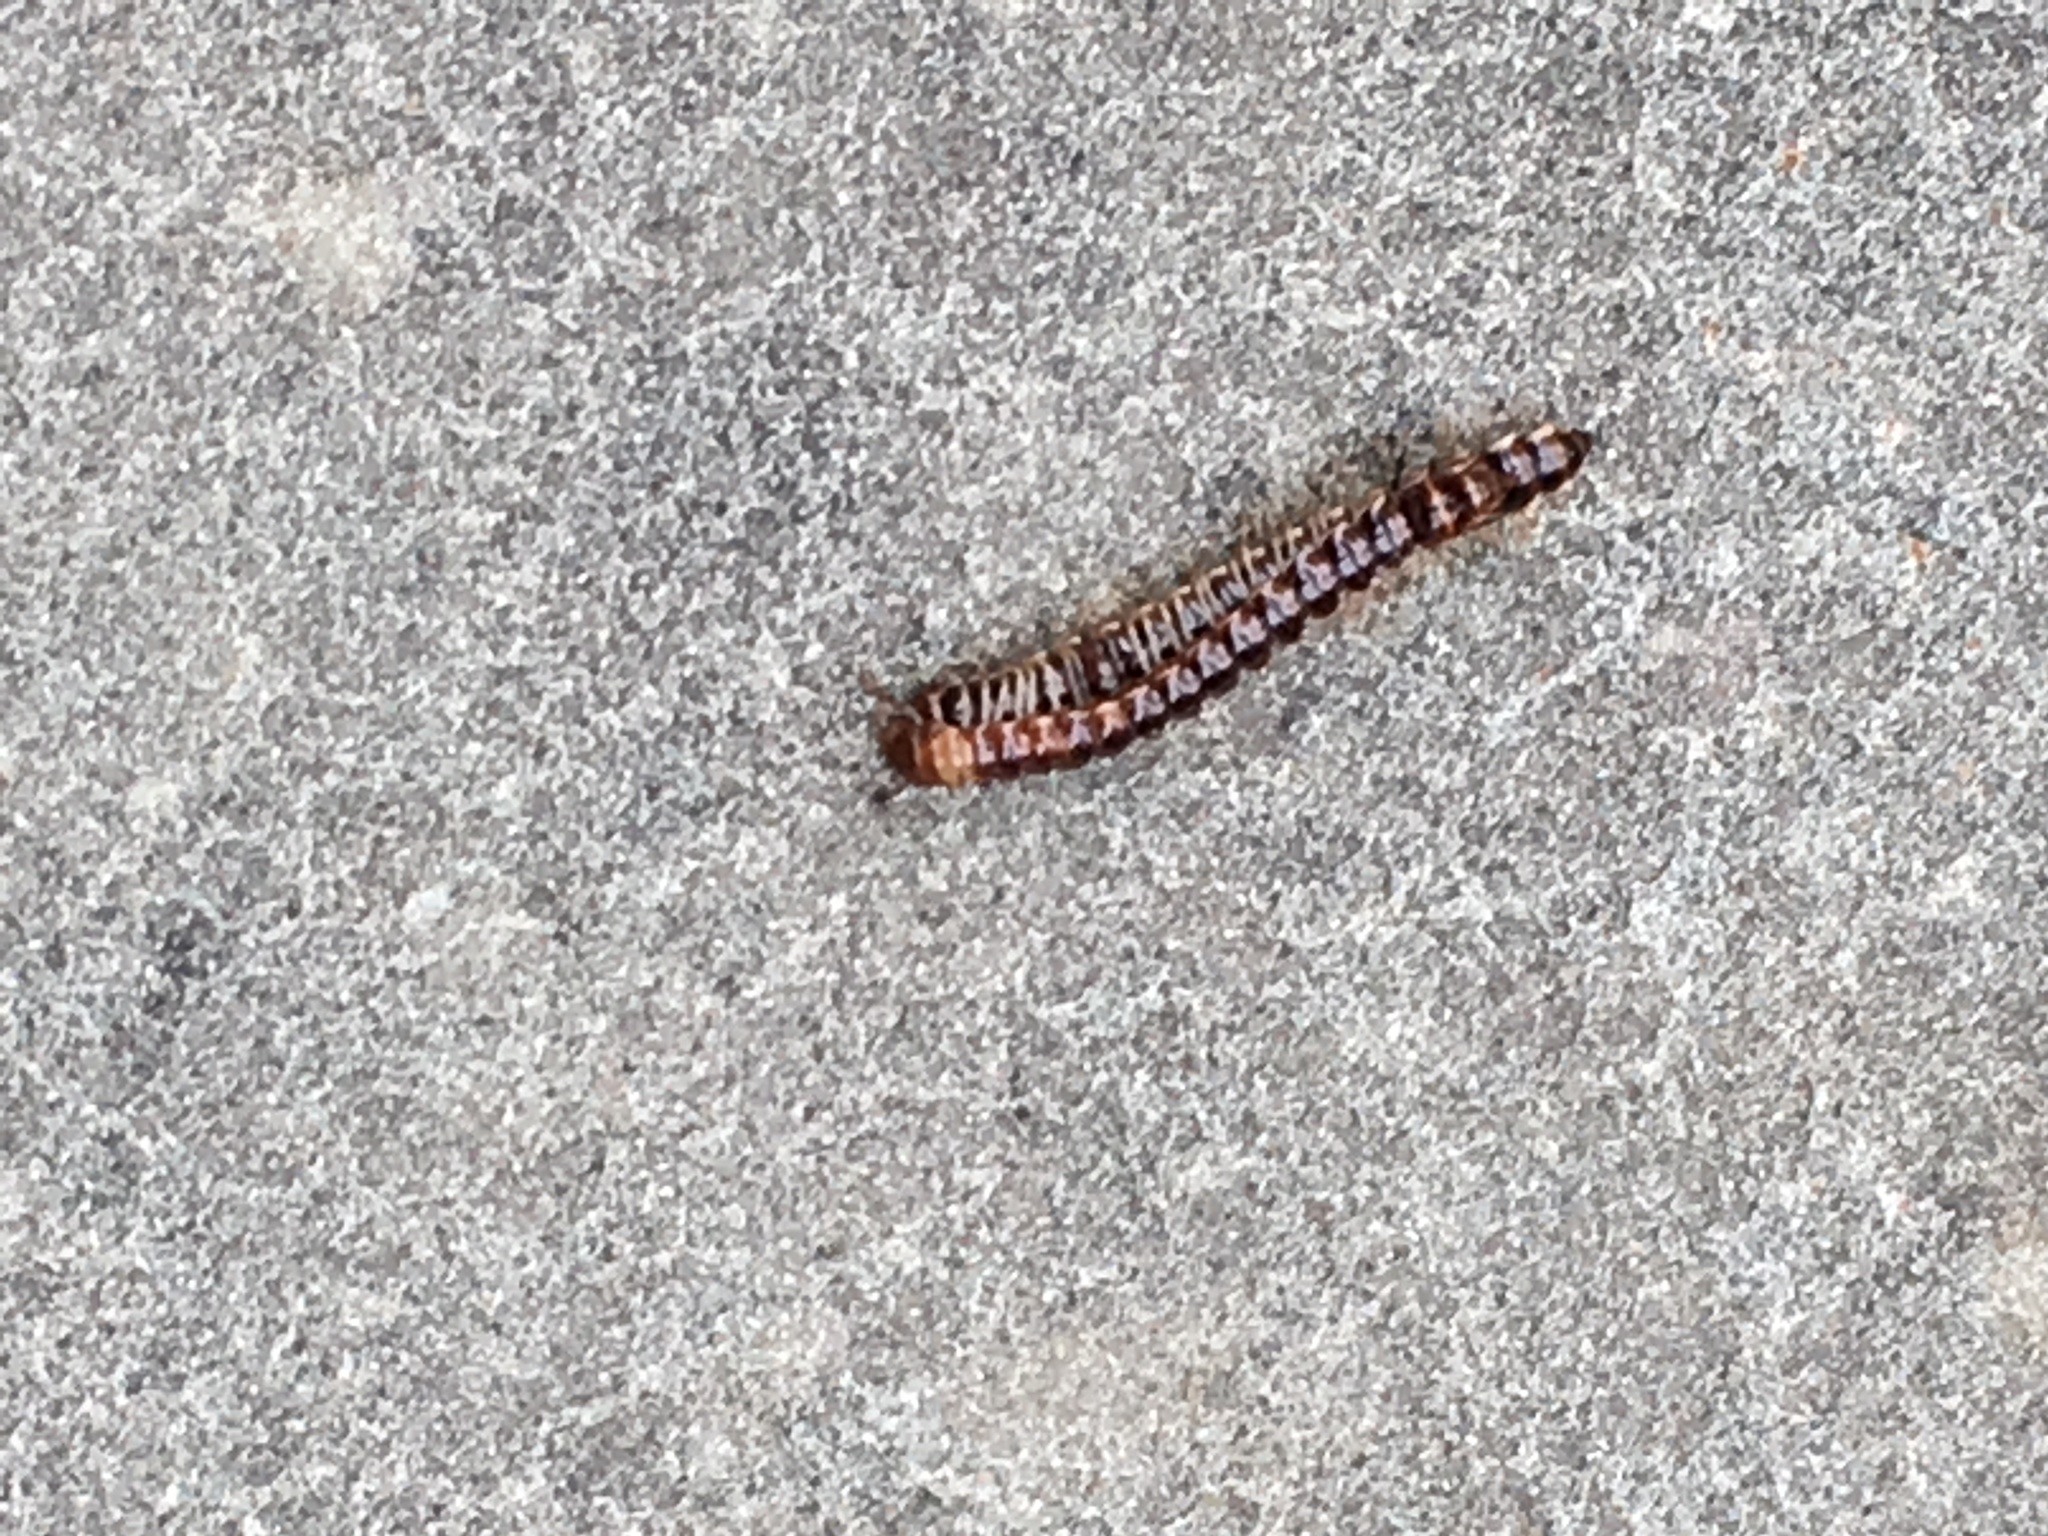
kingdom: Animalia
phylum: Arthropoda
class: Diplopoda
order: Polydesmida
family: Paradoxosomatidae
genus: Oxidus
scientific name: Oxidus gracilis
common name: Greenhouse millipede
